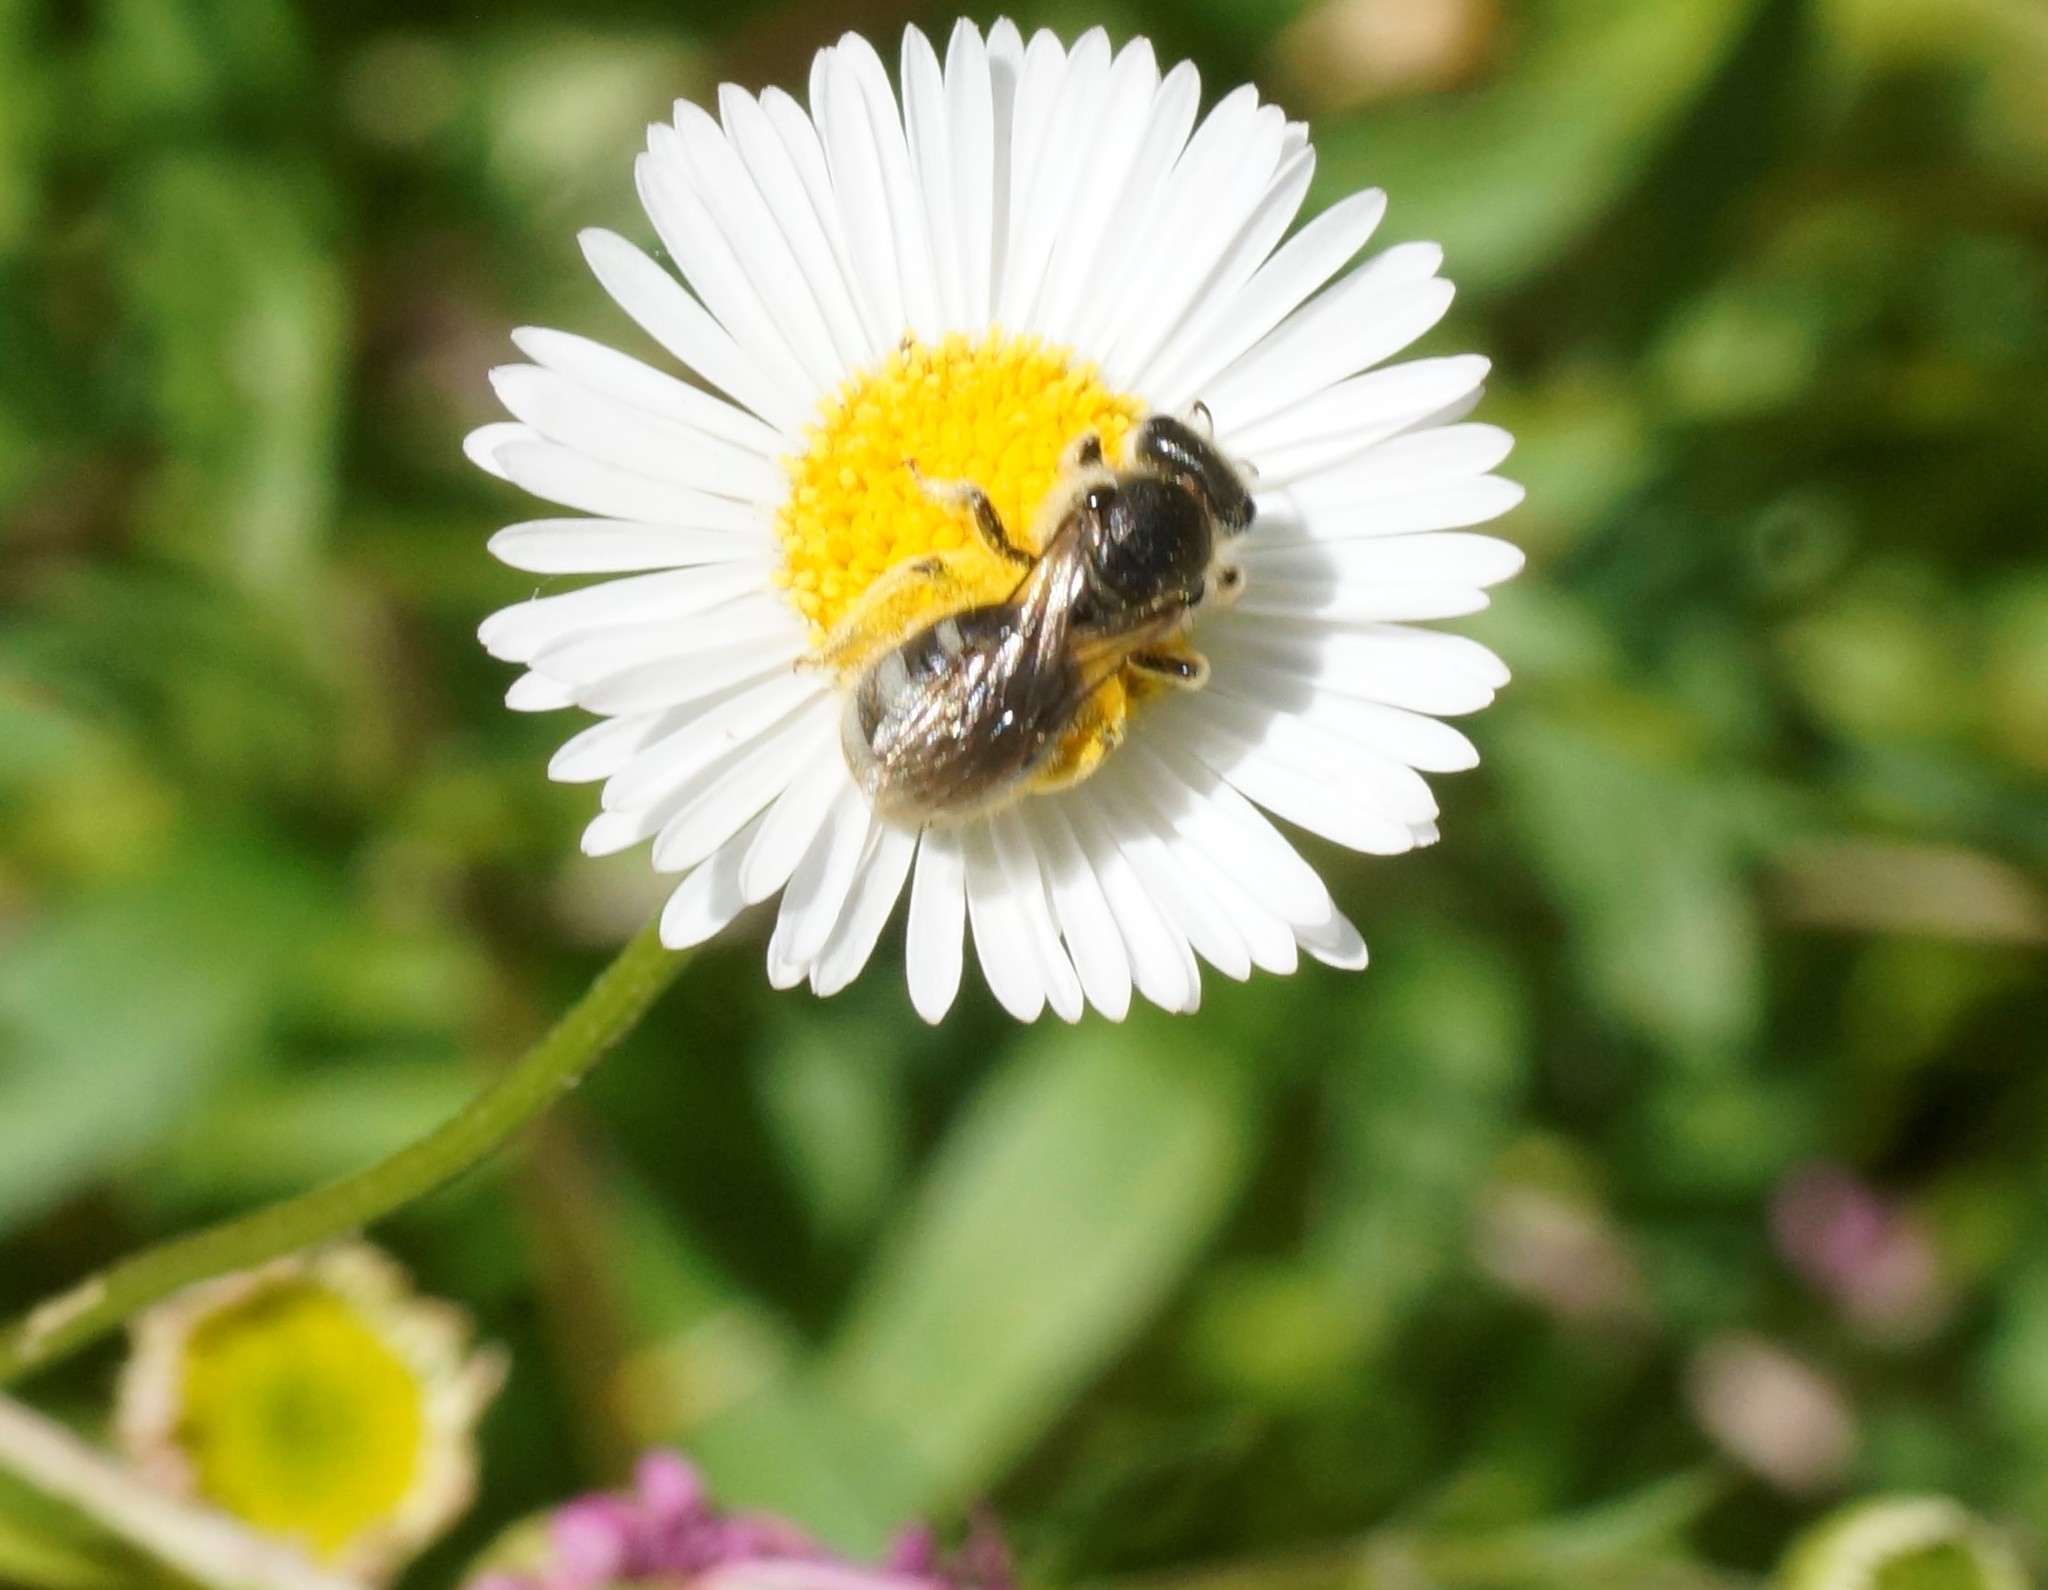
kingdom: Animalia
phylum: Arthropoda
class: Insecta
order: Hymenoptera
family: Halictidae
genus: Lasioglossum
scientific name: Lasioglossum lanarium
